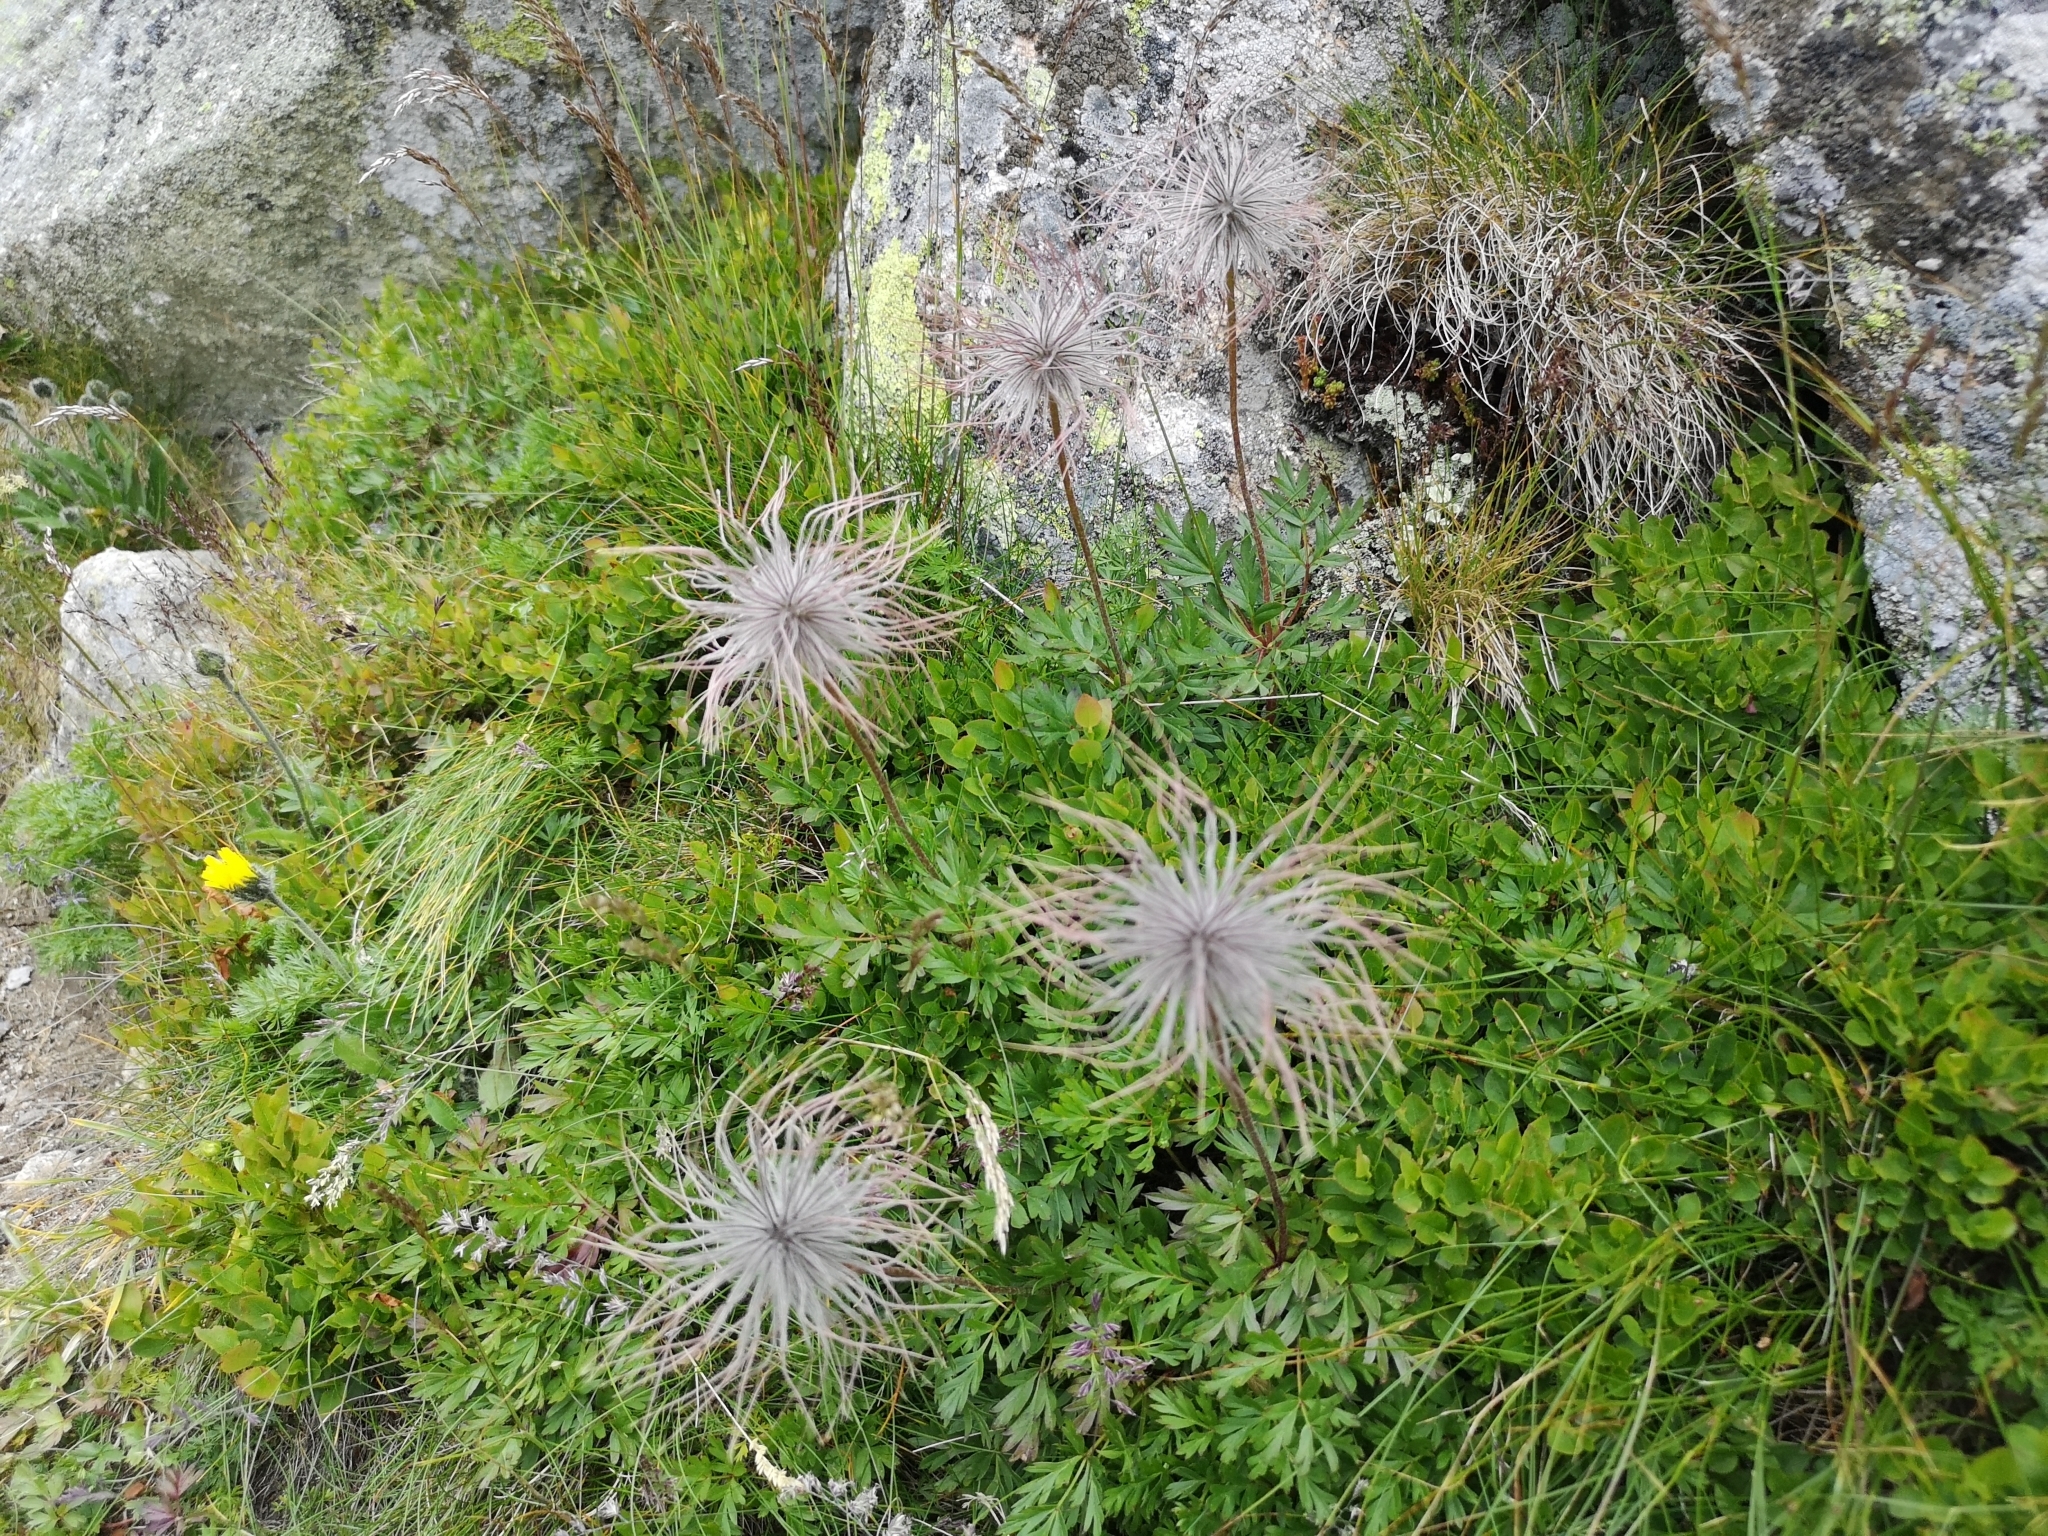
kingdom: Plantae
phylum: Tracheophyta
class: Magnoliopsida
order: Ranunculales
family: Ranunculaceae
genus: Pulsatilla
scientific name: Pulsatilla alpina
